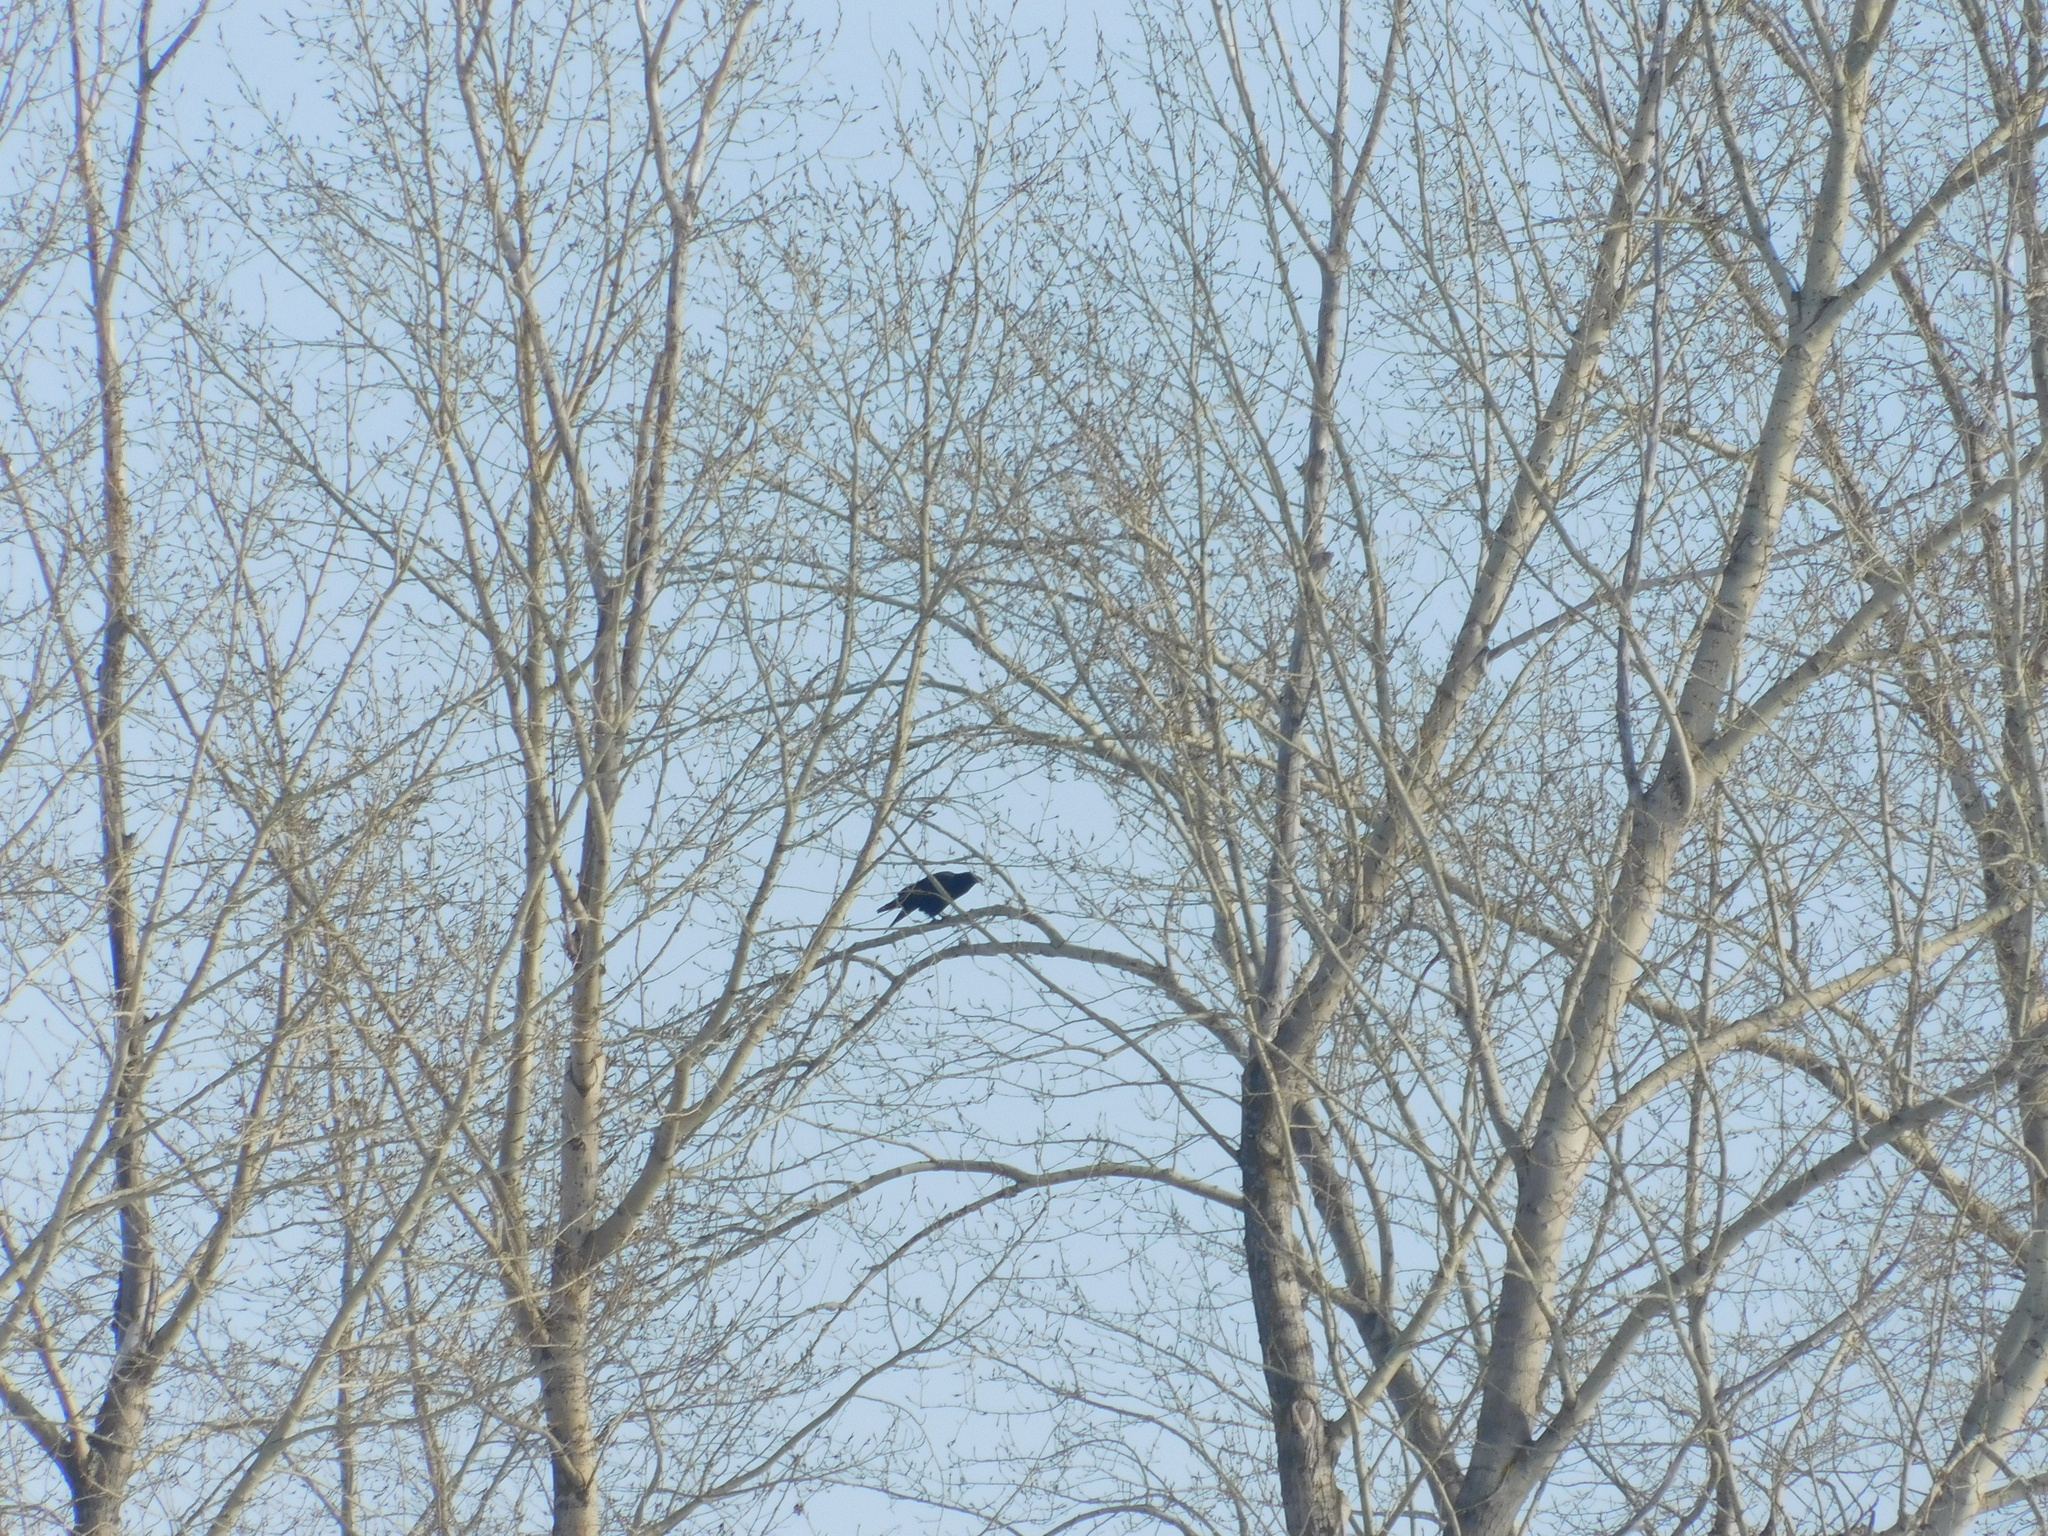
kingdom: Animalia
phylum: Chordata
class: Aves
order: Passeriformes
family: Corvidae
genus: Corvus
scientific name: Corvus corax
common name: Common raven
